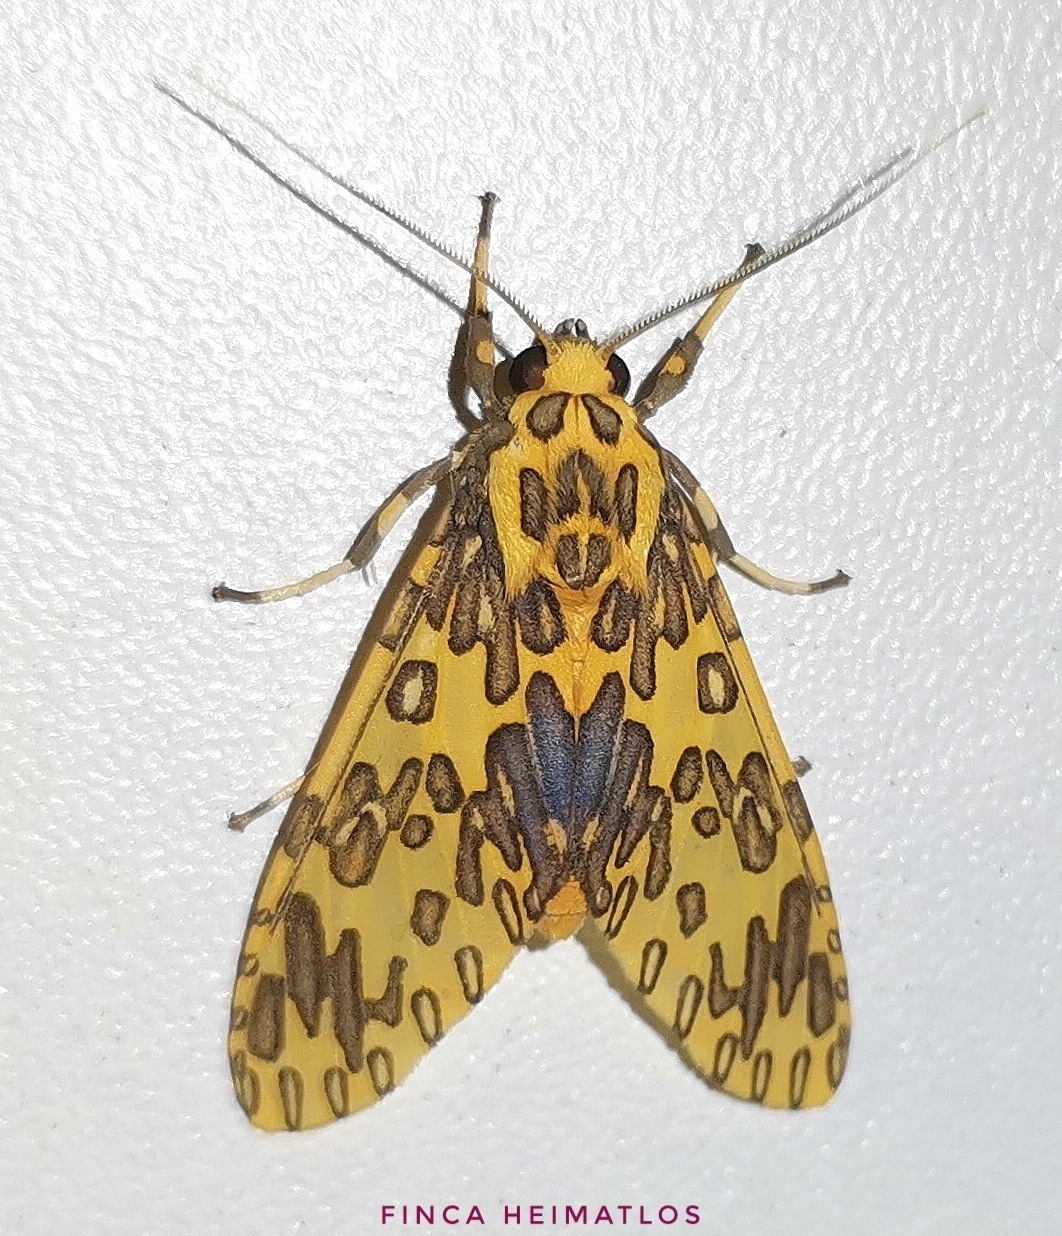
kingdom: Animalia
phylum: Arthropoda
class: Insecta
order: Lepidoptera
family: Erebidae
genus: Amaxia
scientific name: Amaxia pandama
